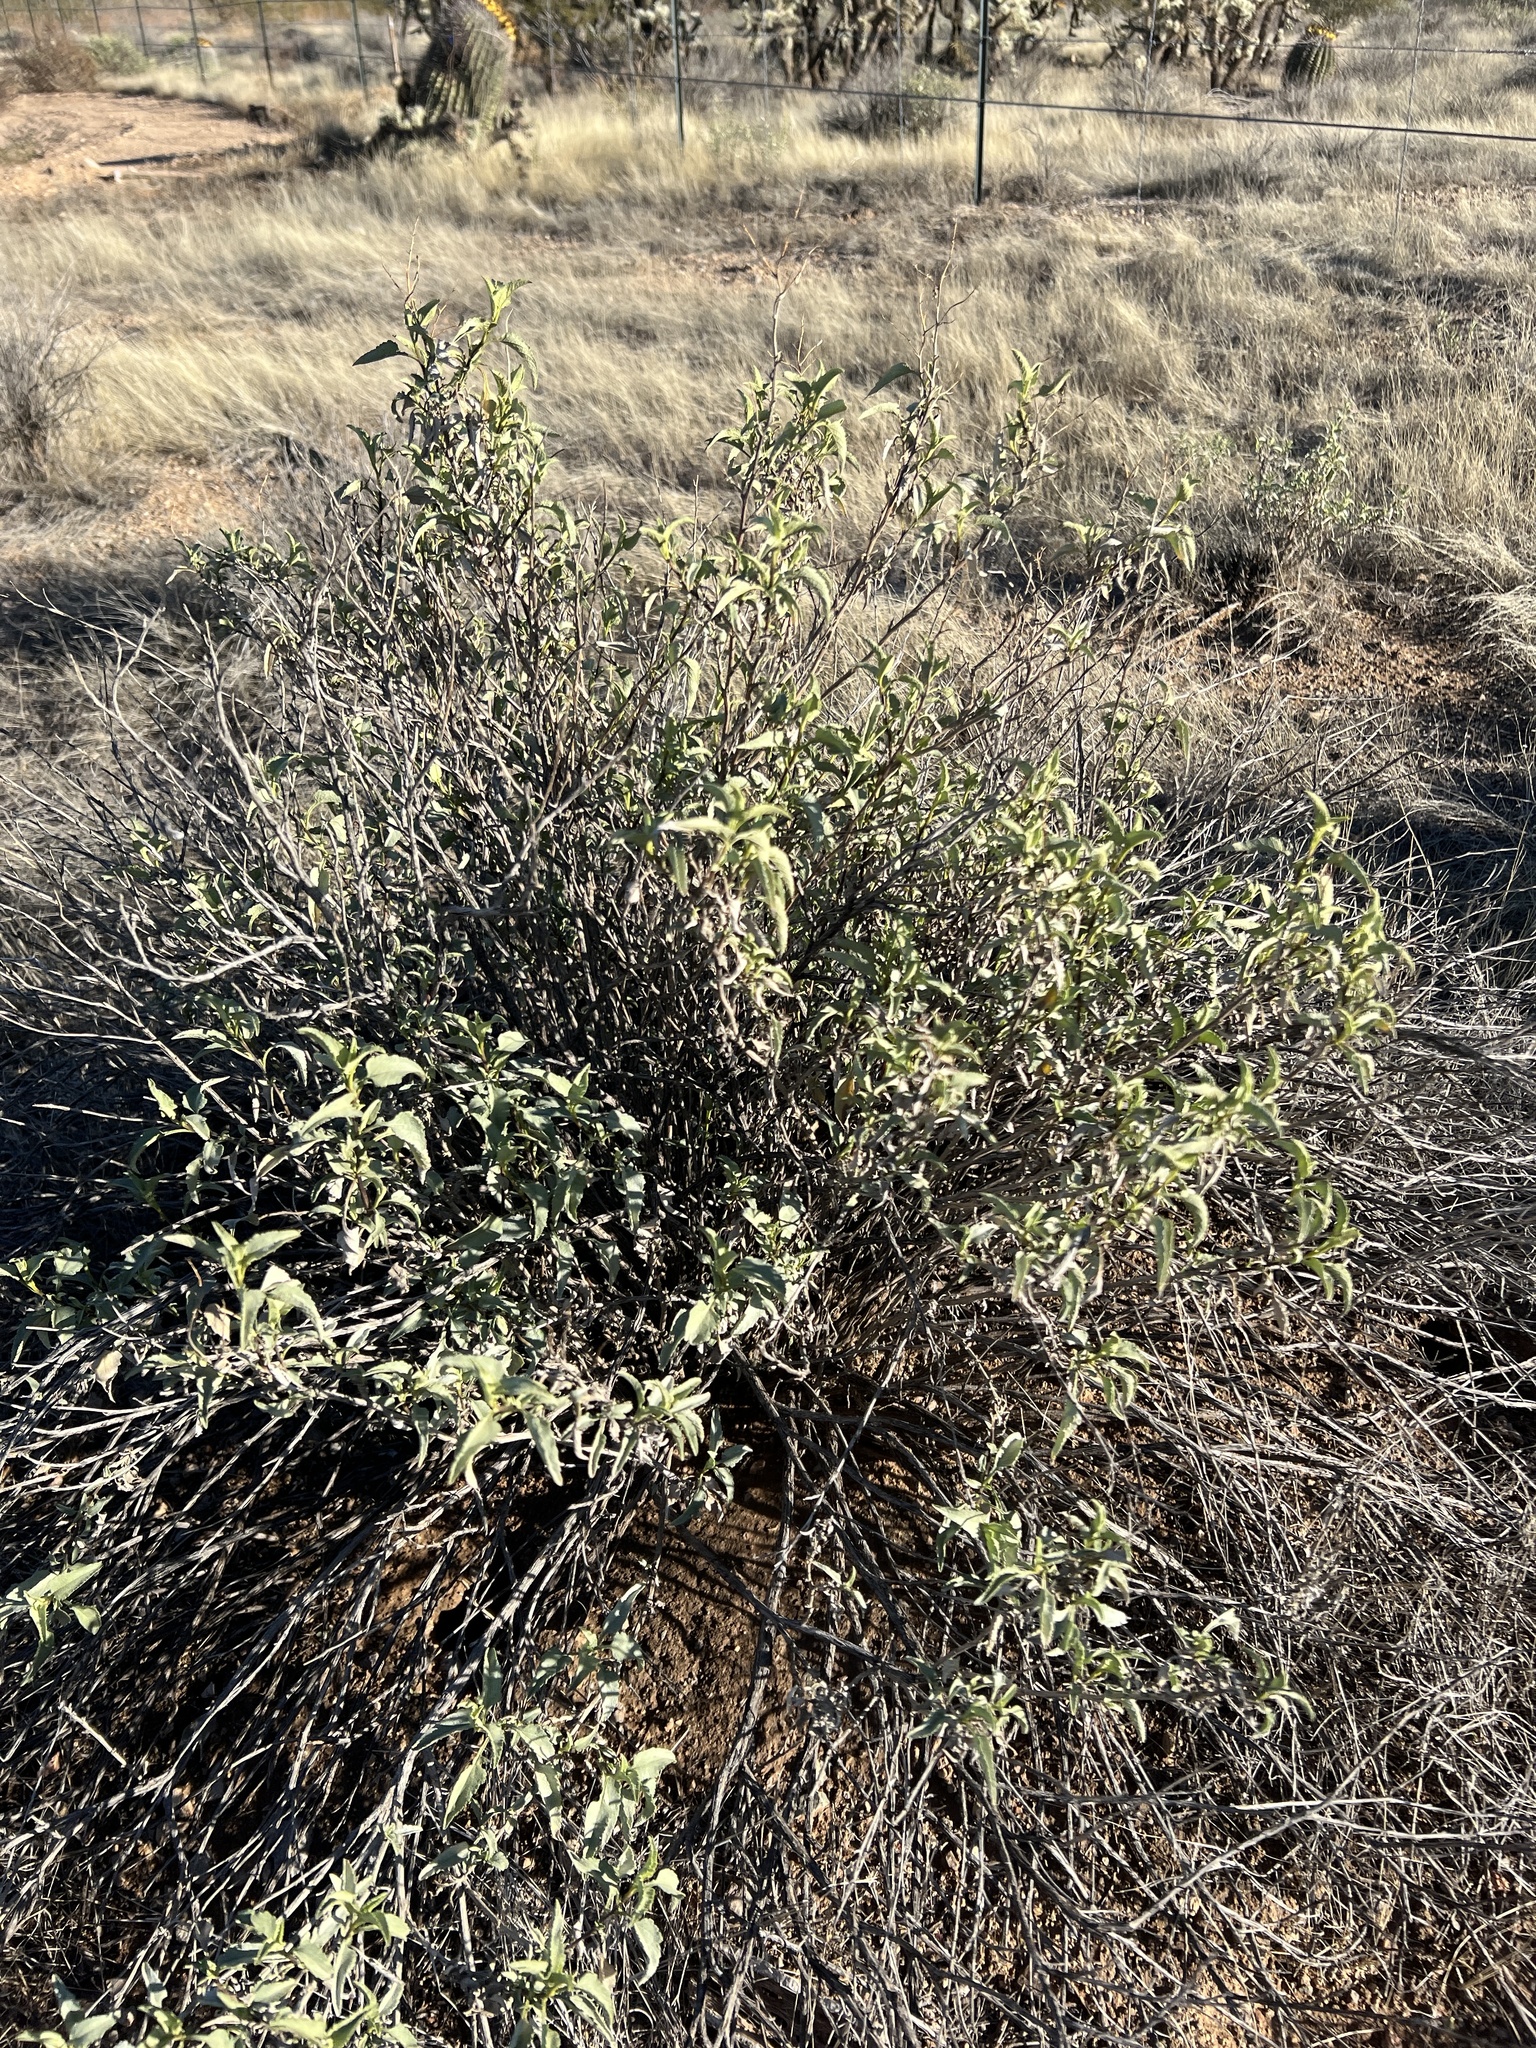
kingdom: Plantae
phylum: Tracheophyta
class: Magnoliopsida
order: Asterales
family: Asteraceae
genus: Ambrosia
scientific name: Ambrosia deltoidea
